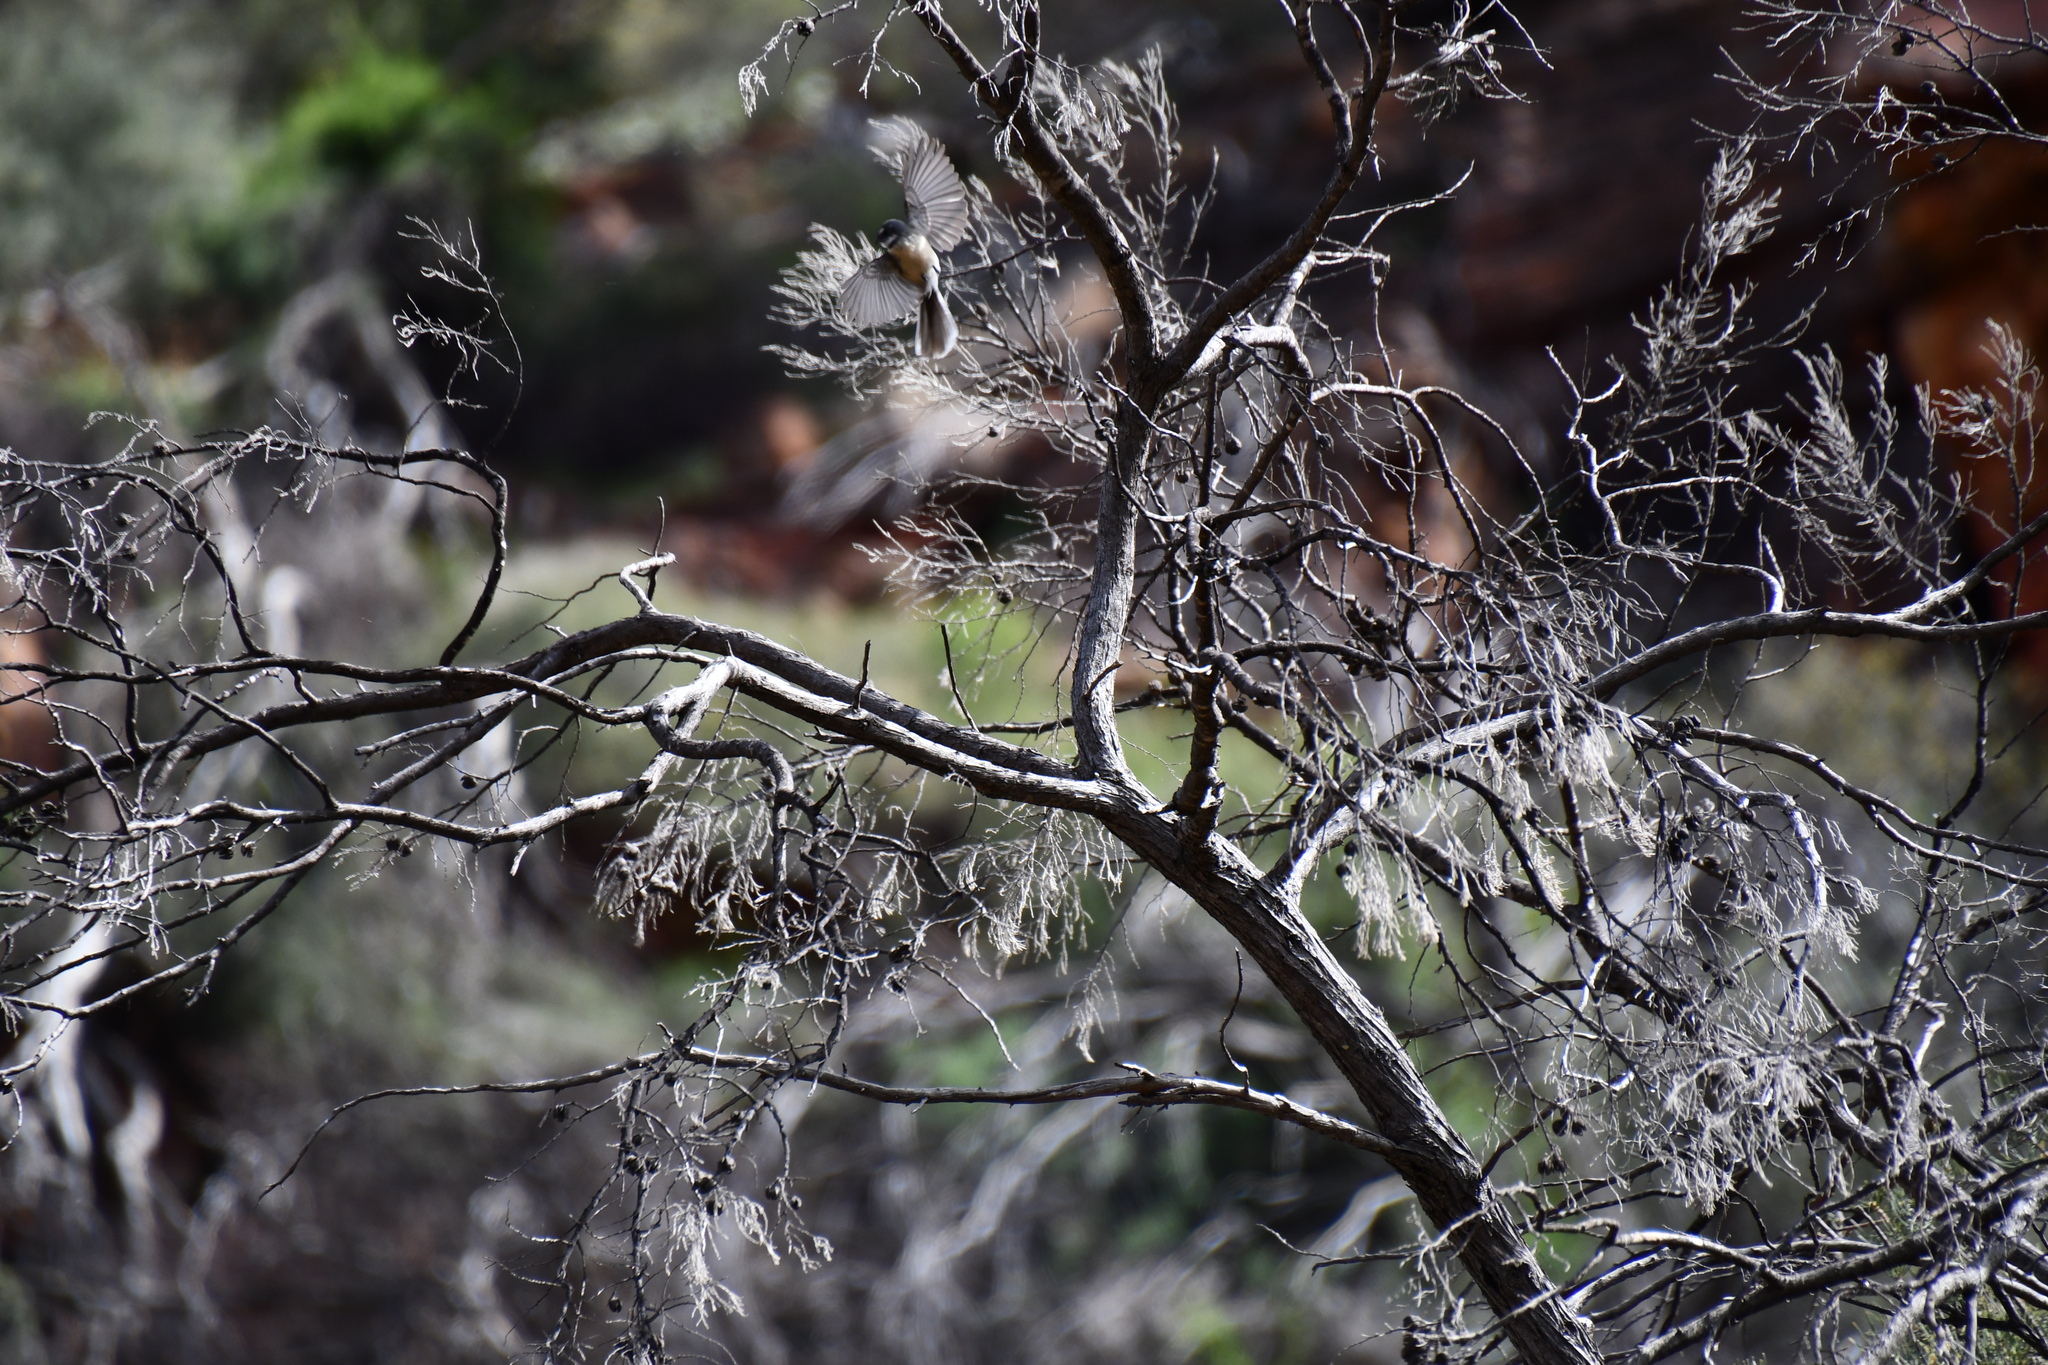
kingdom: Animalia
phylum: Chordata
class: Aves
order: Passeriformes
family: Rhipiduridae
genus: Rhipidura
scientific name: Rhipidura albiscapa
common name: Grey fantail
